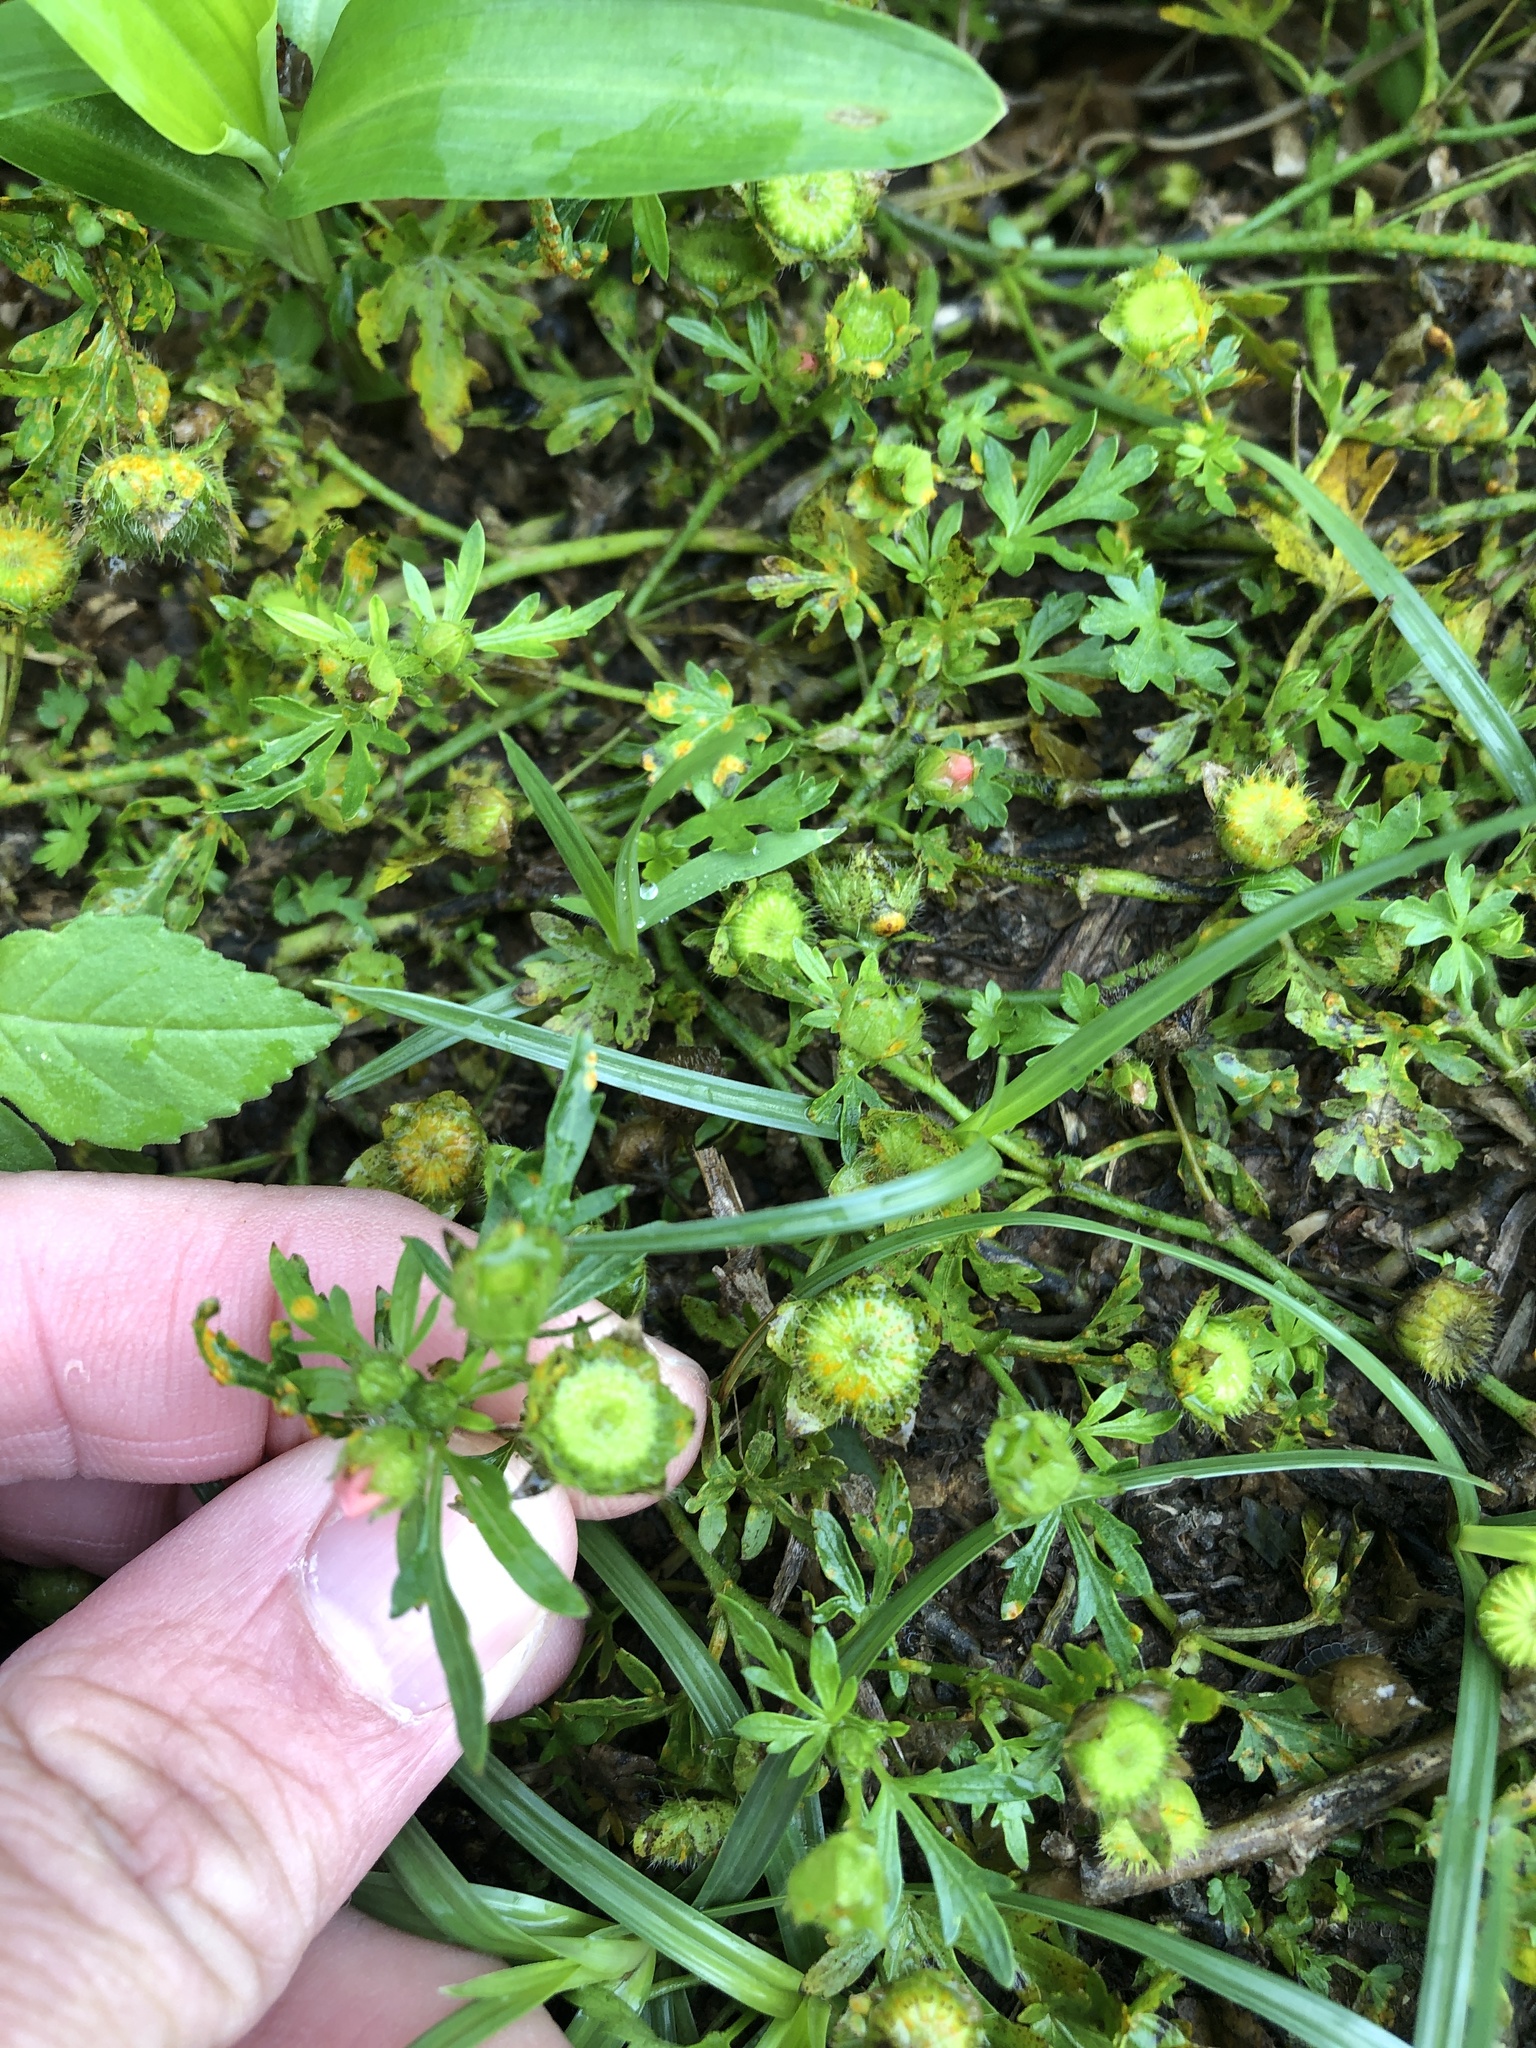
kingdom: Plantae
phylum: Tracheophyta
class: Magnoliopsida
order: Malvales
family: Malvaceae
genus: Modiola
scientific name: Modiola caroliniana
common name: Carolina bristlemallow
